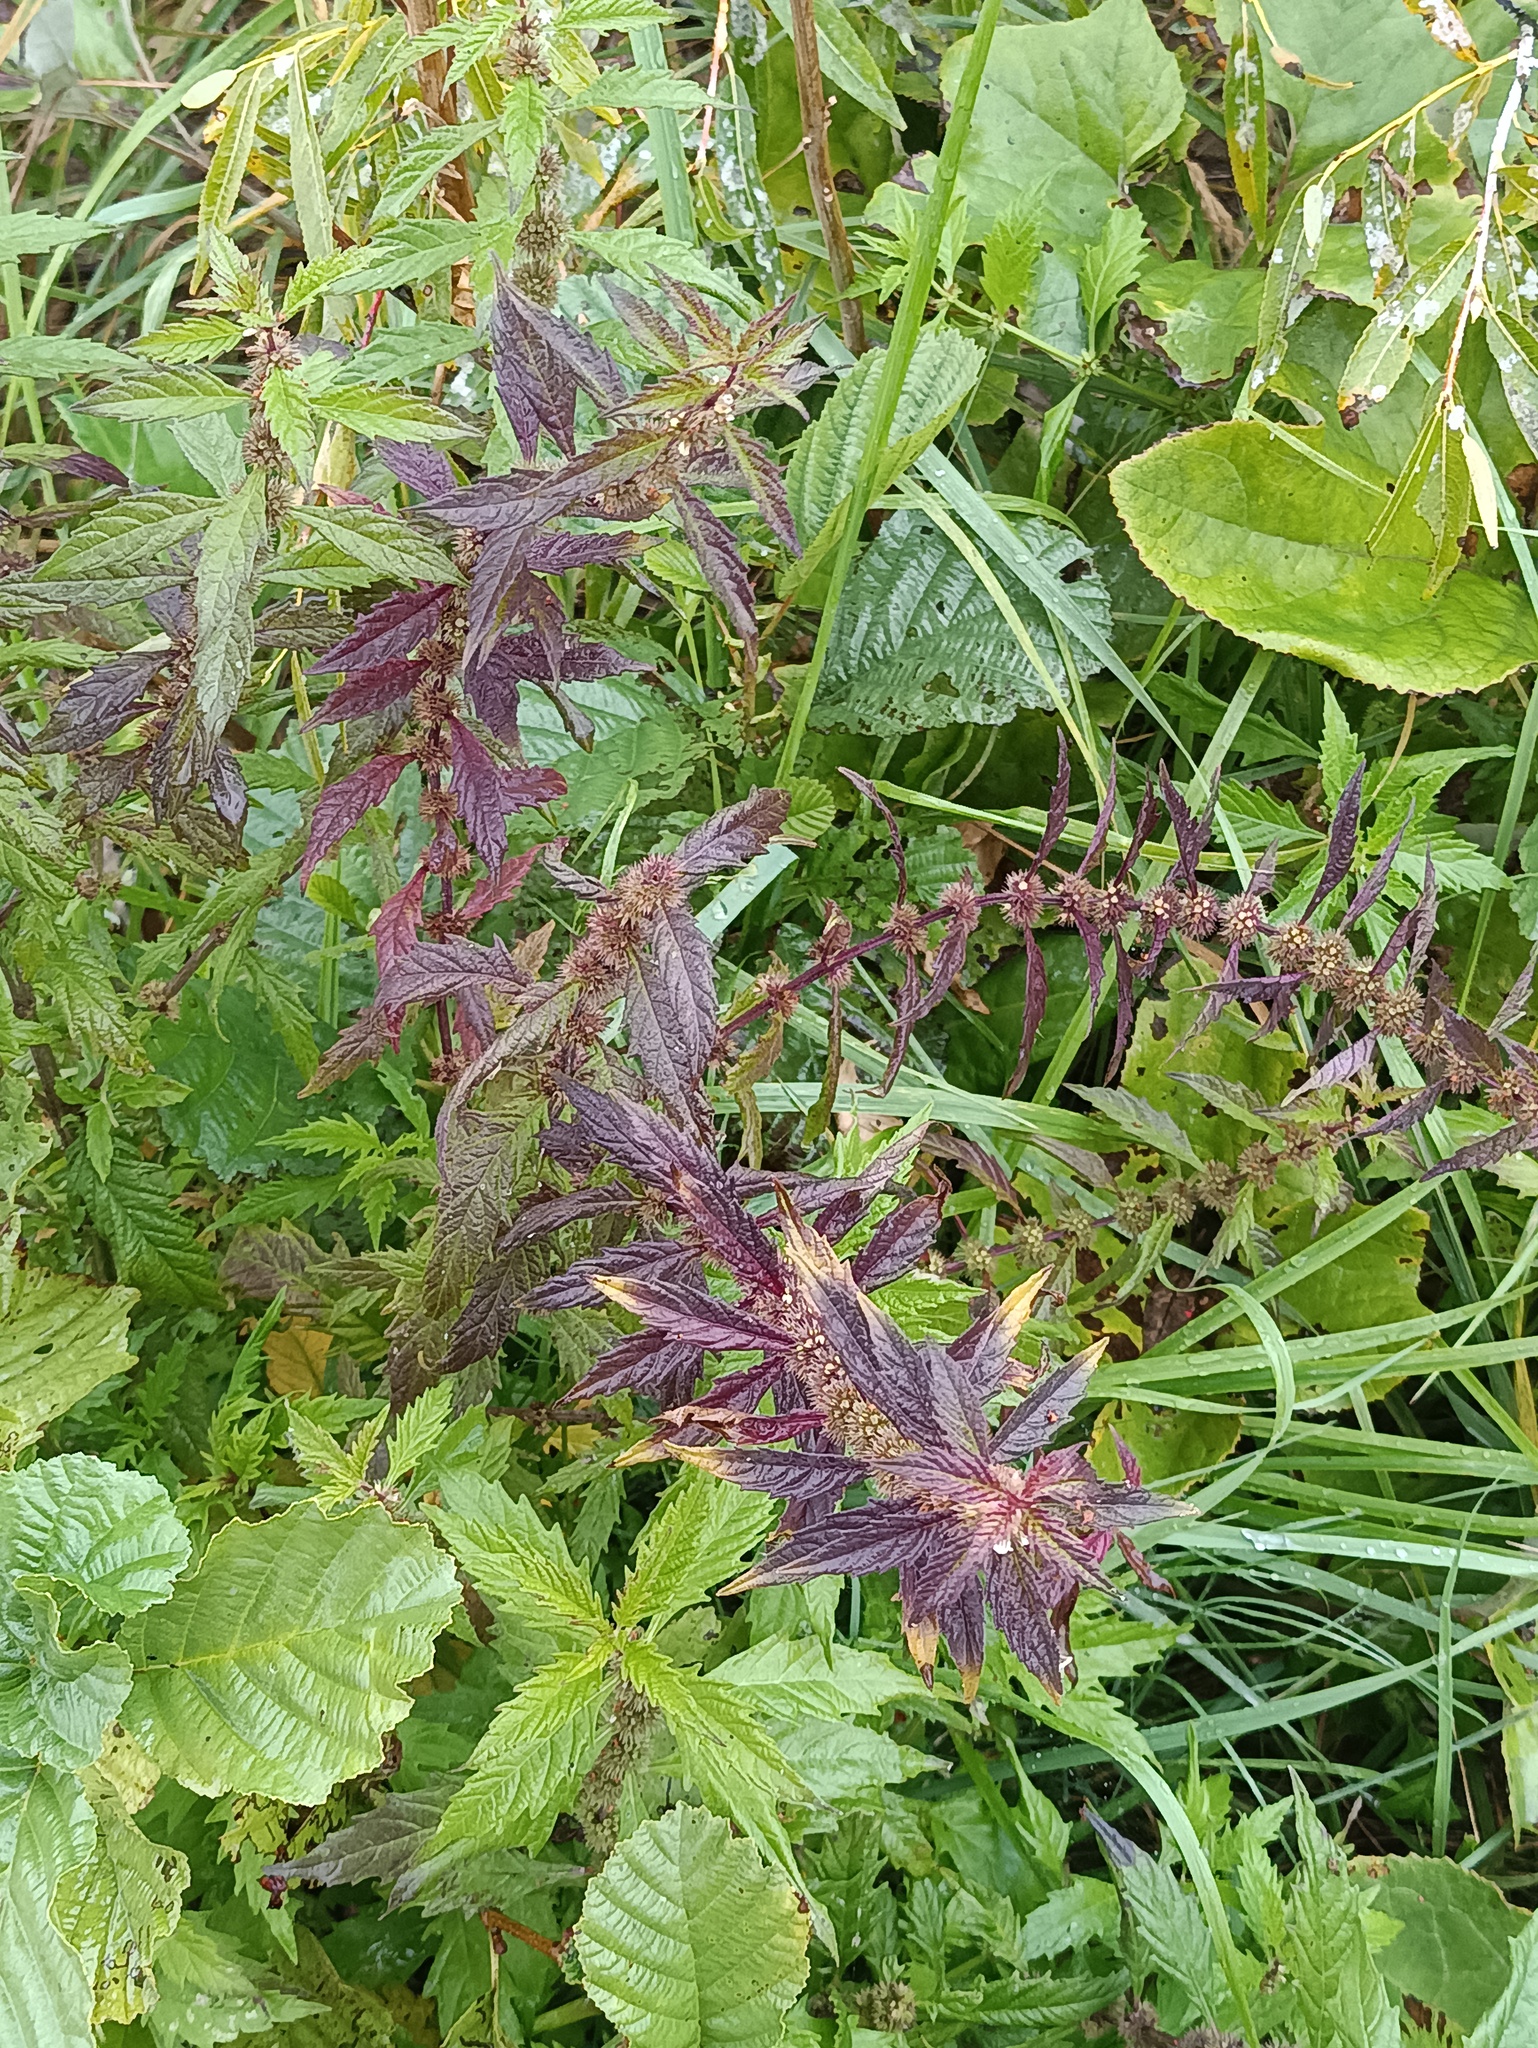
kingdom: Plantae
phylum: Tracheophyta
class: Magnoliopsida
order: Lamiales
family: Lamiaceae
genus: Lycopus
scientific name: Lycopus europaeus
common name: European bugleweed
